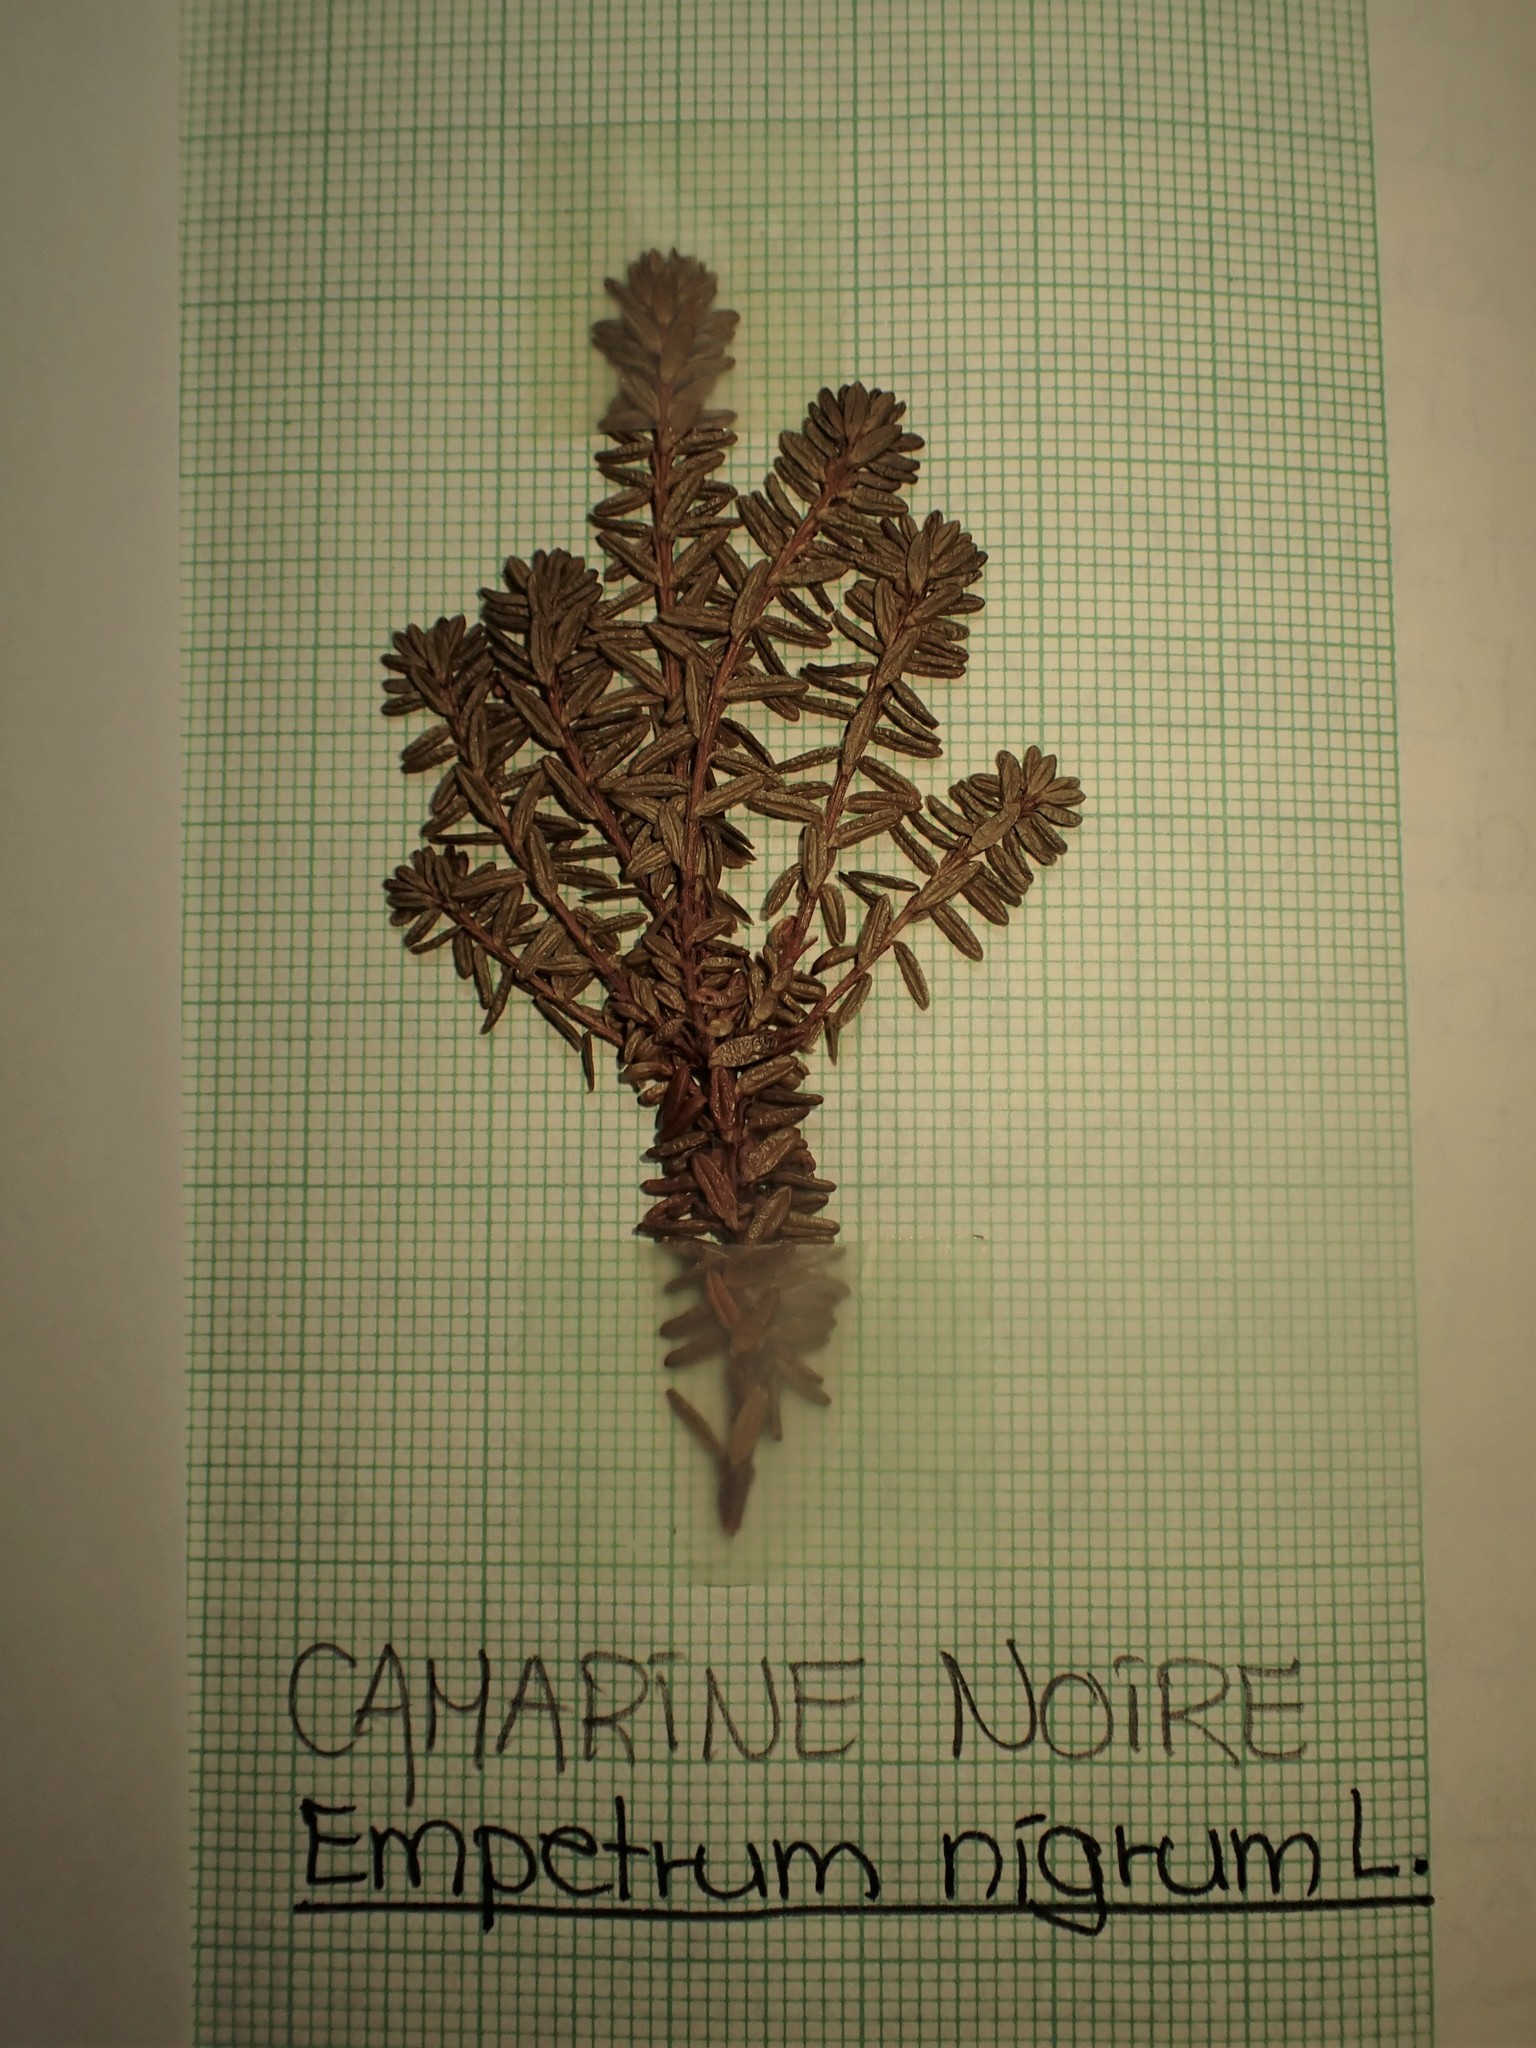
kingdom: Plantae
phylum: Tracheophyta
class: Magnoliopsida
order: Ericales
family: Ericaceae
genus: Empetrum
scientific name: Empetrum nigrum
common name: Black crowberry
